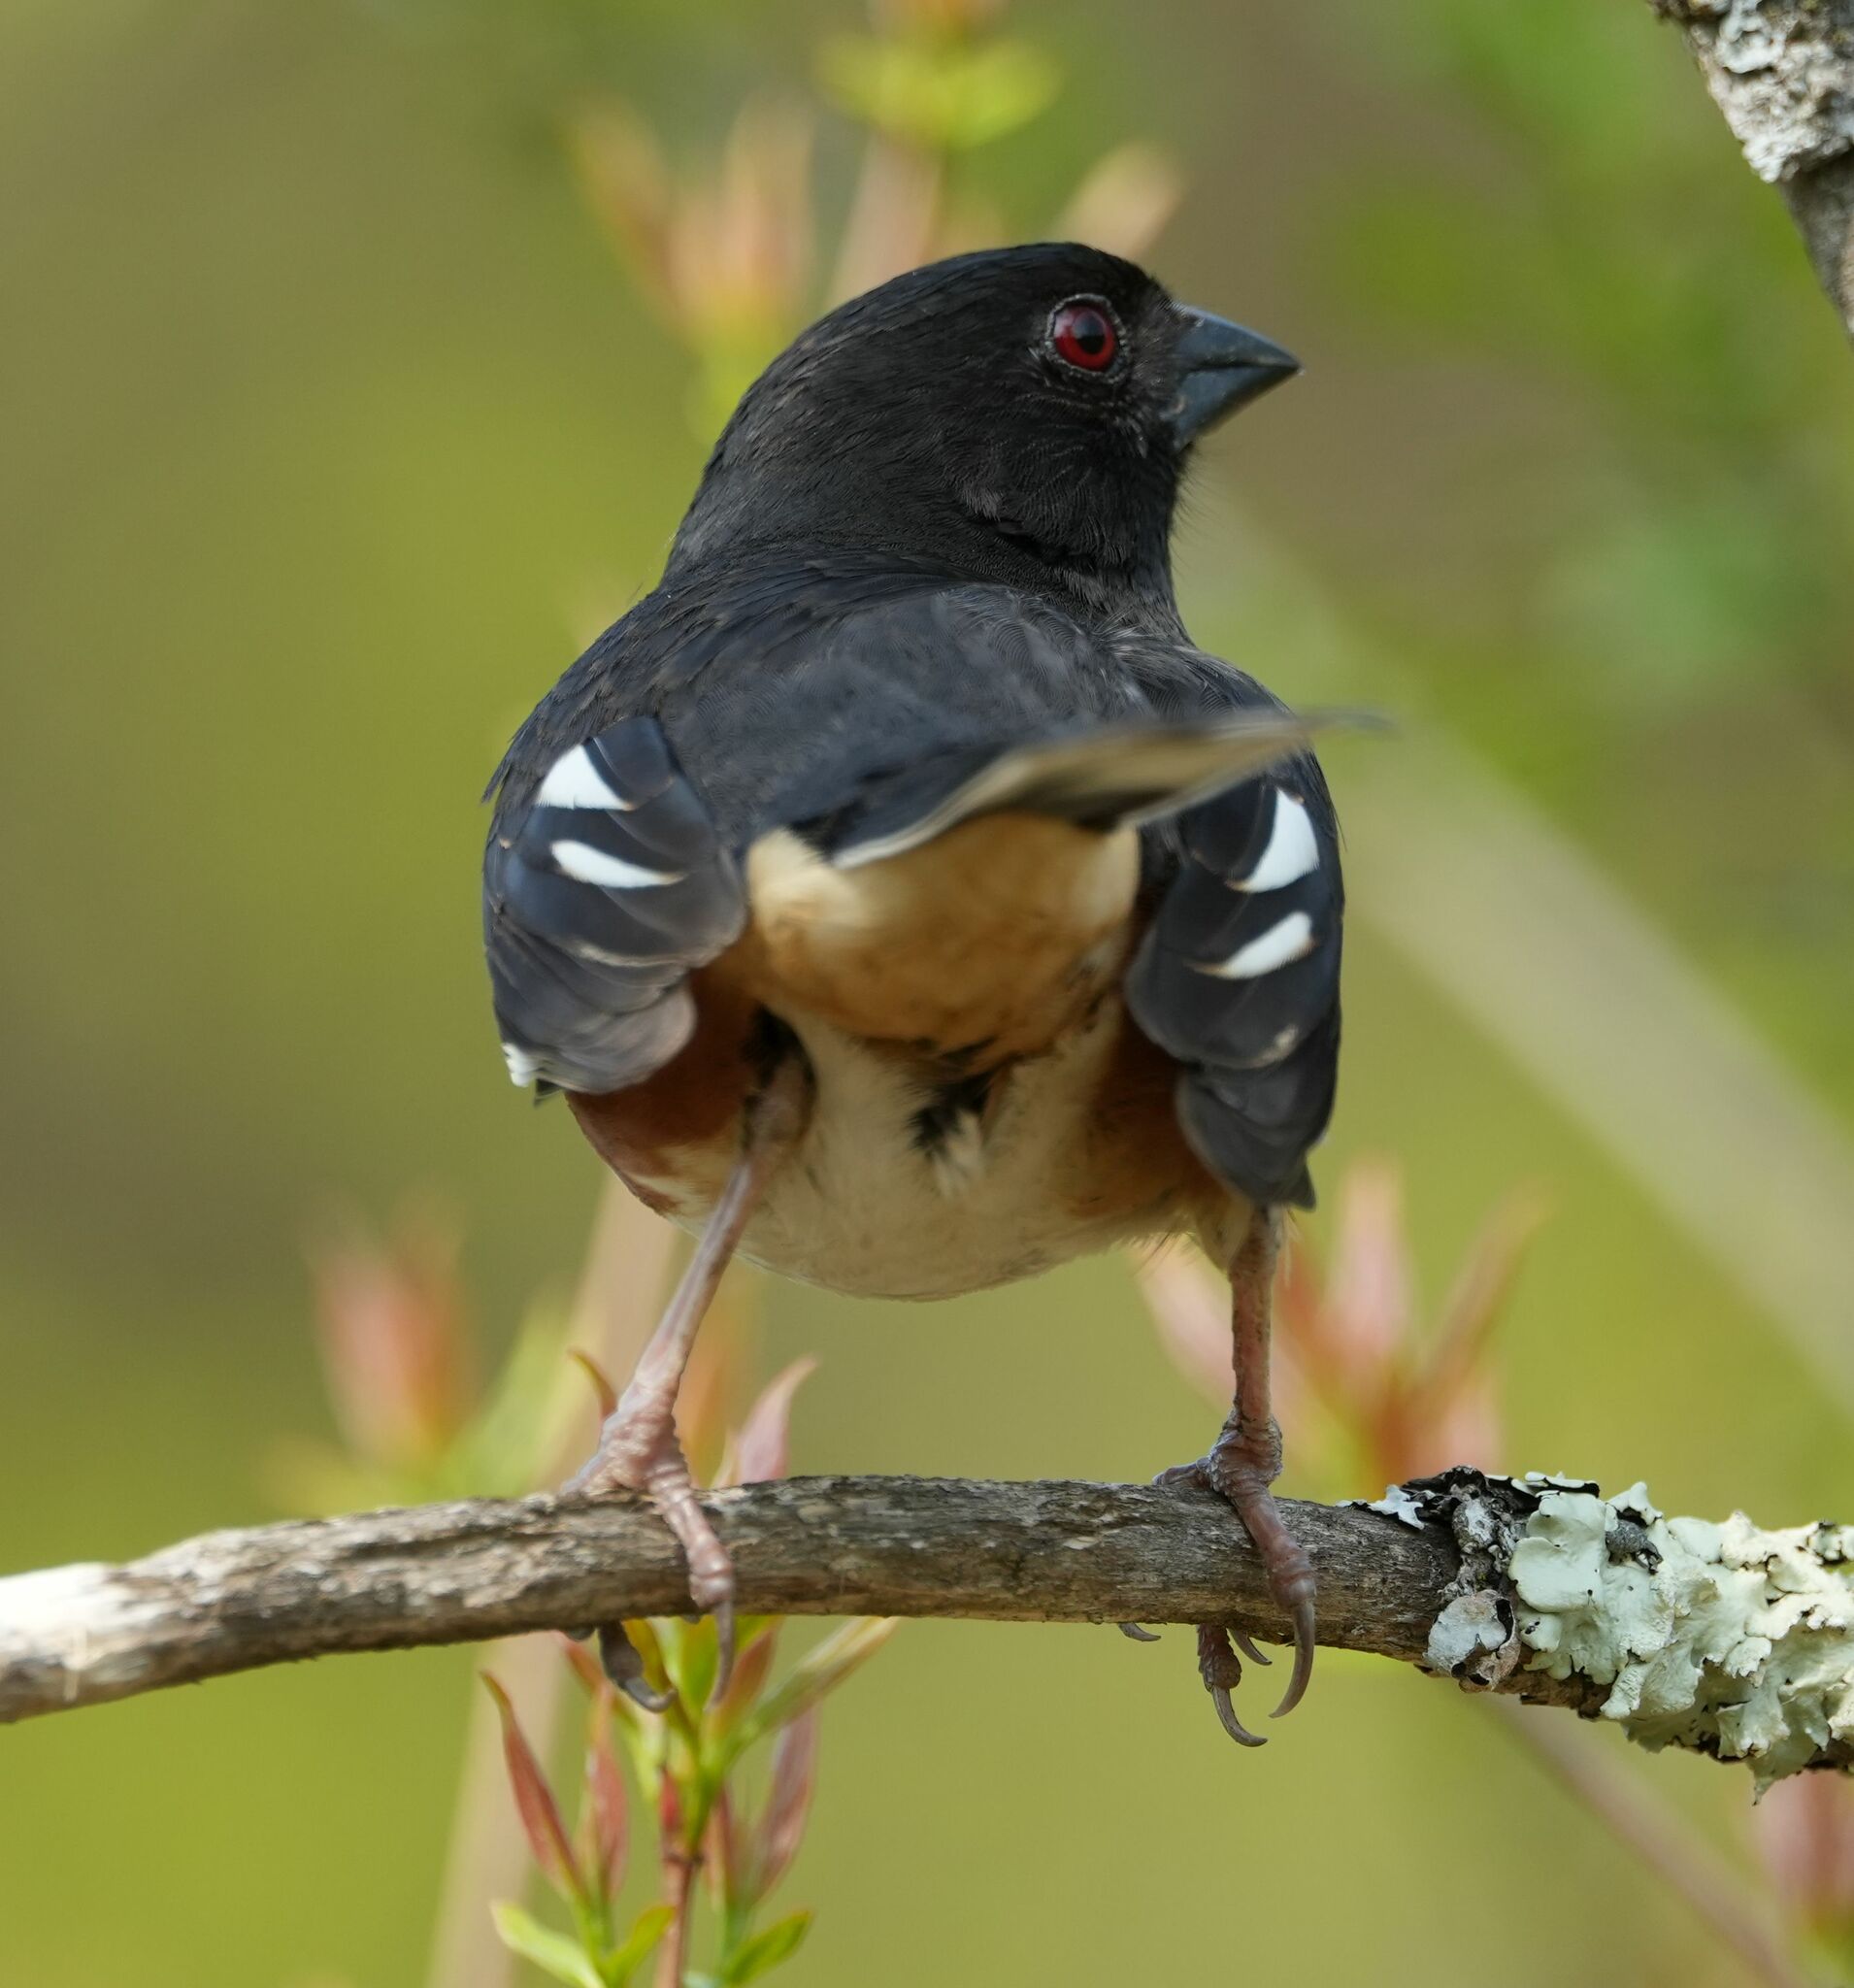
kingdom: Animalia
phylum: Chordata
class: Aves
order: Passeriformes
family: Passerellidae
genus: Pipilo
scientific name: Pipilo erythrophthalmus
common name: Eastern towhee
